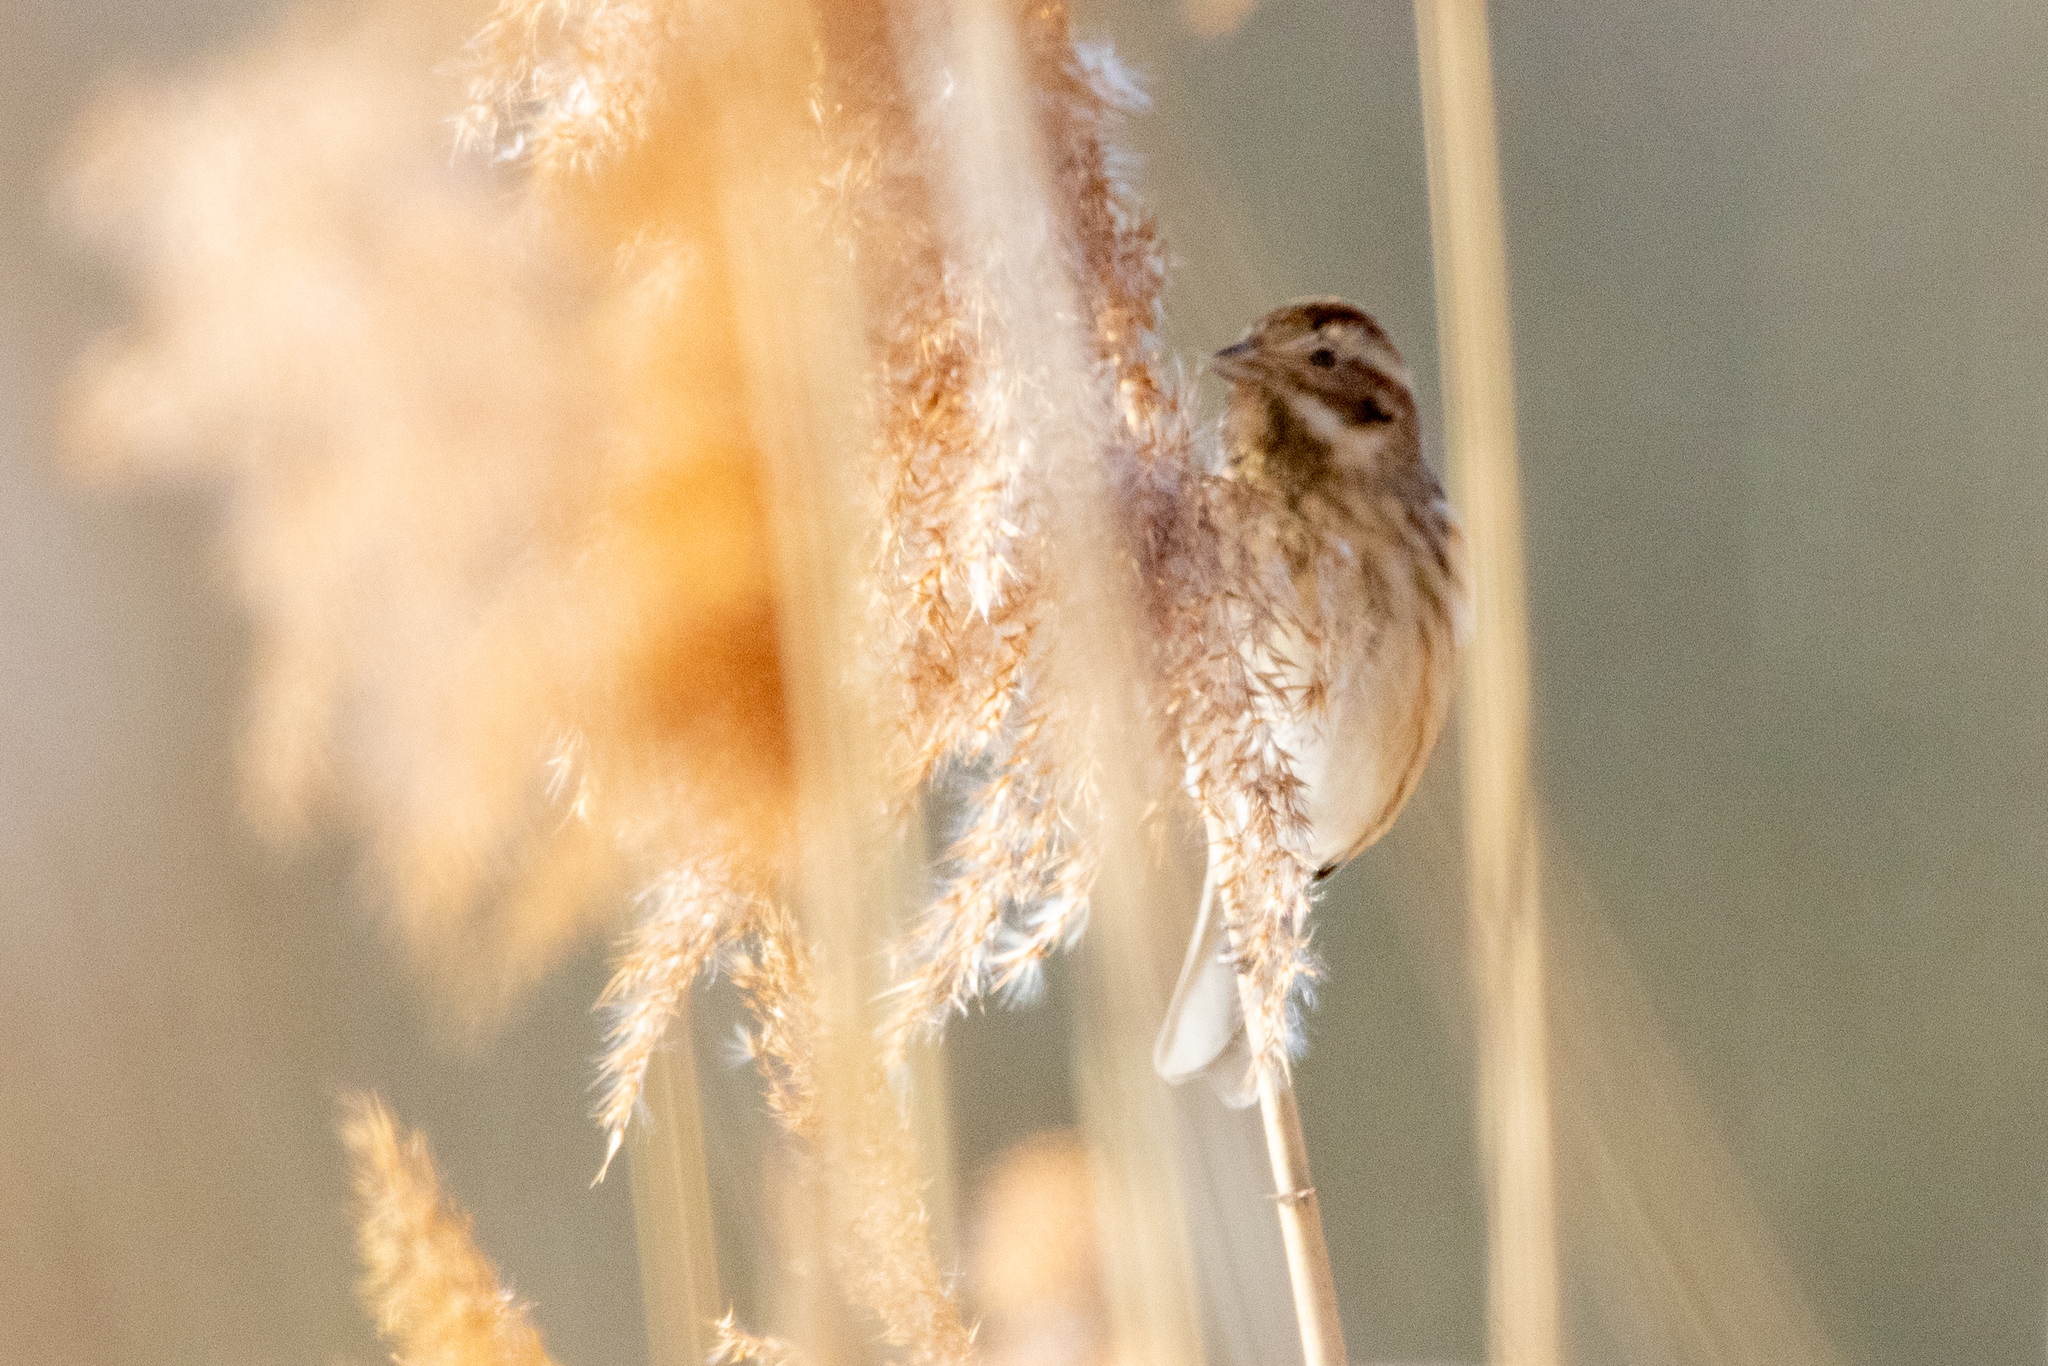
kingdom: Animalia
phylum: Chordata
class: Aves
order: Passeriformes
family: Emberizidae
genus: Emberiza
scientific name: Emberiza schoeniclus
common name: Reed bunting
